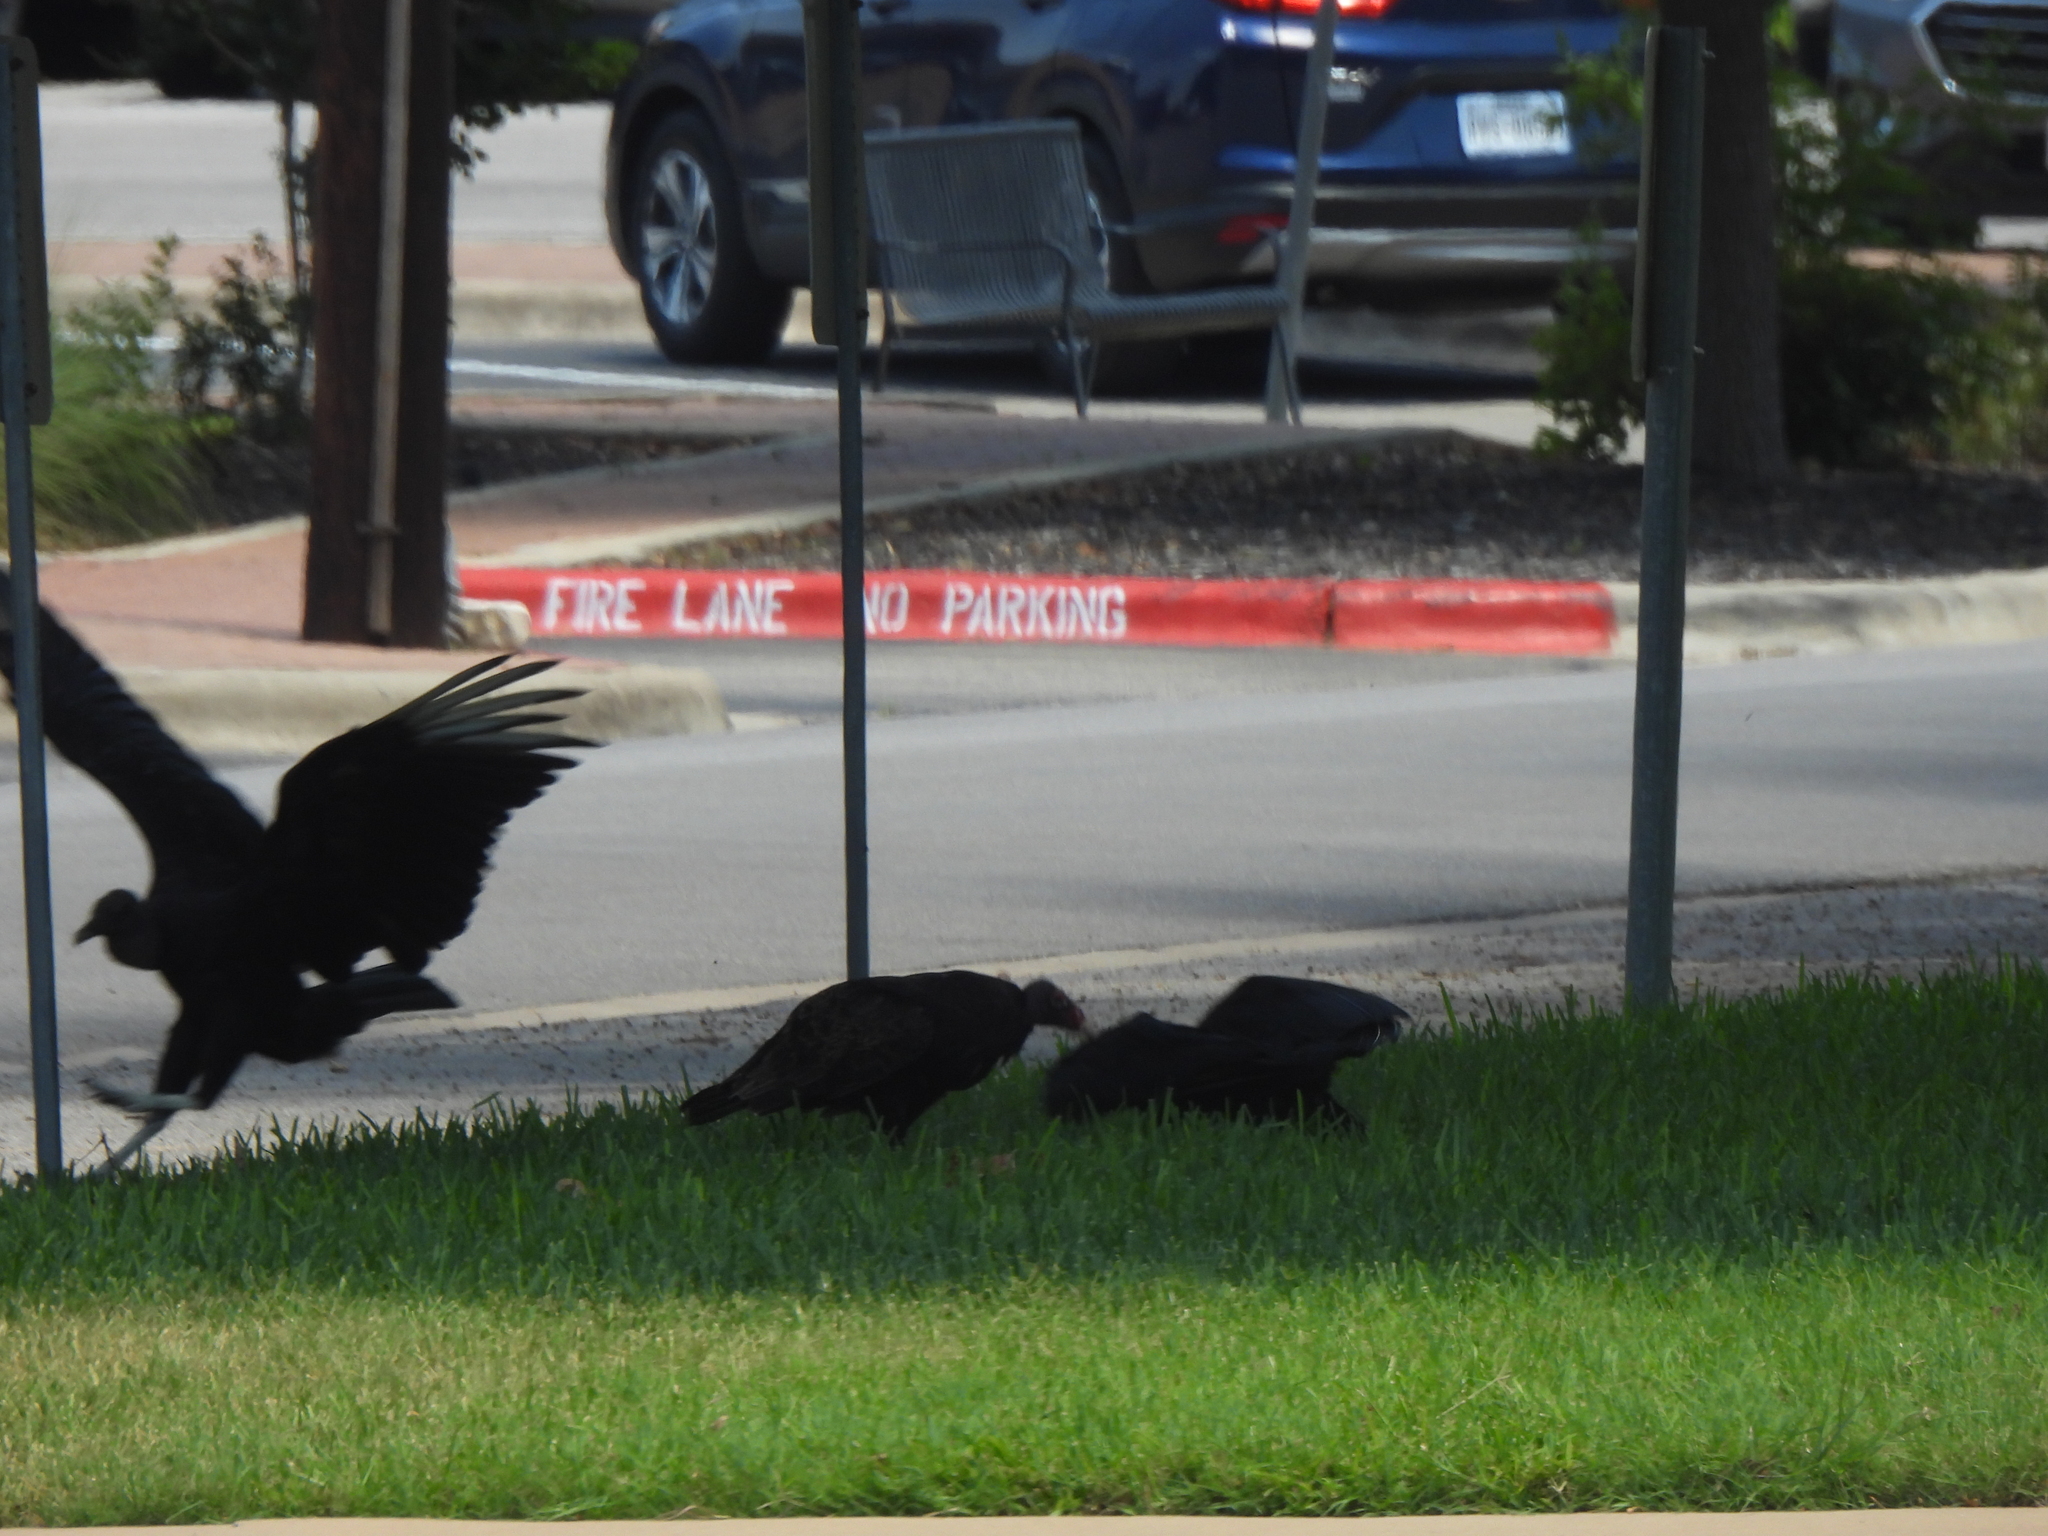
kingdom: Animalia
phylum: Chordata
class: Aves
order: Accipitriformes
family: Cathartidae
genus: Coragyps
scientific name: Coragyps atratus
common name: Black vulture
